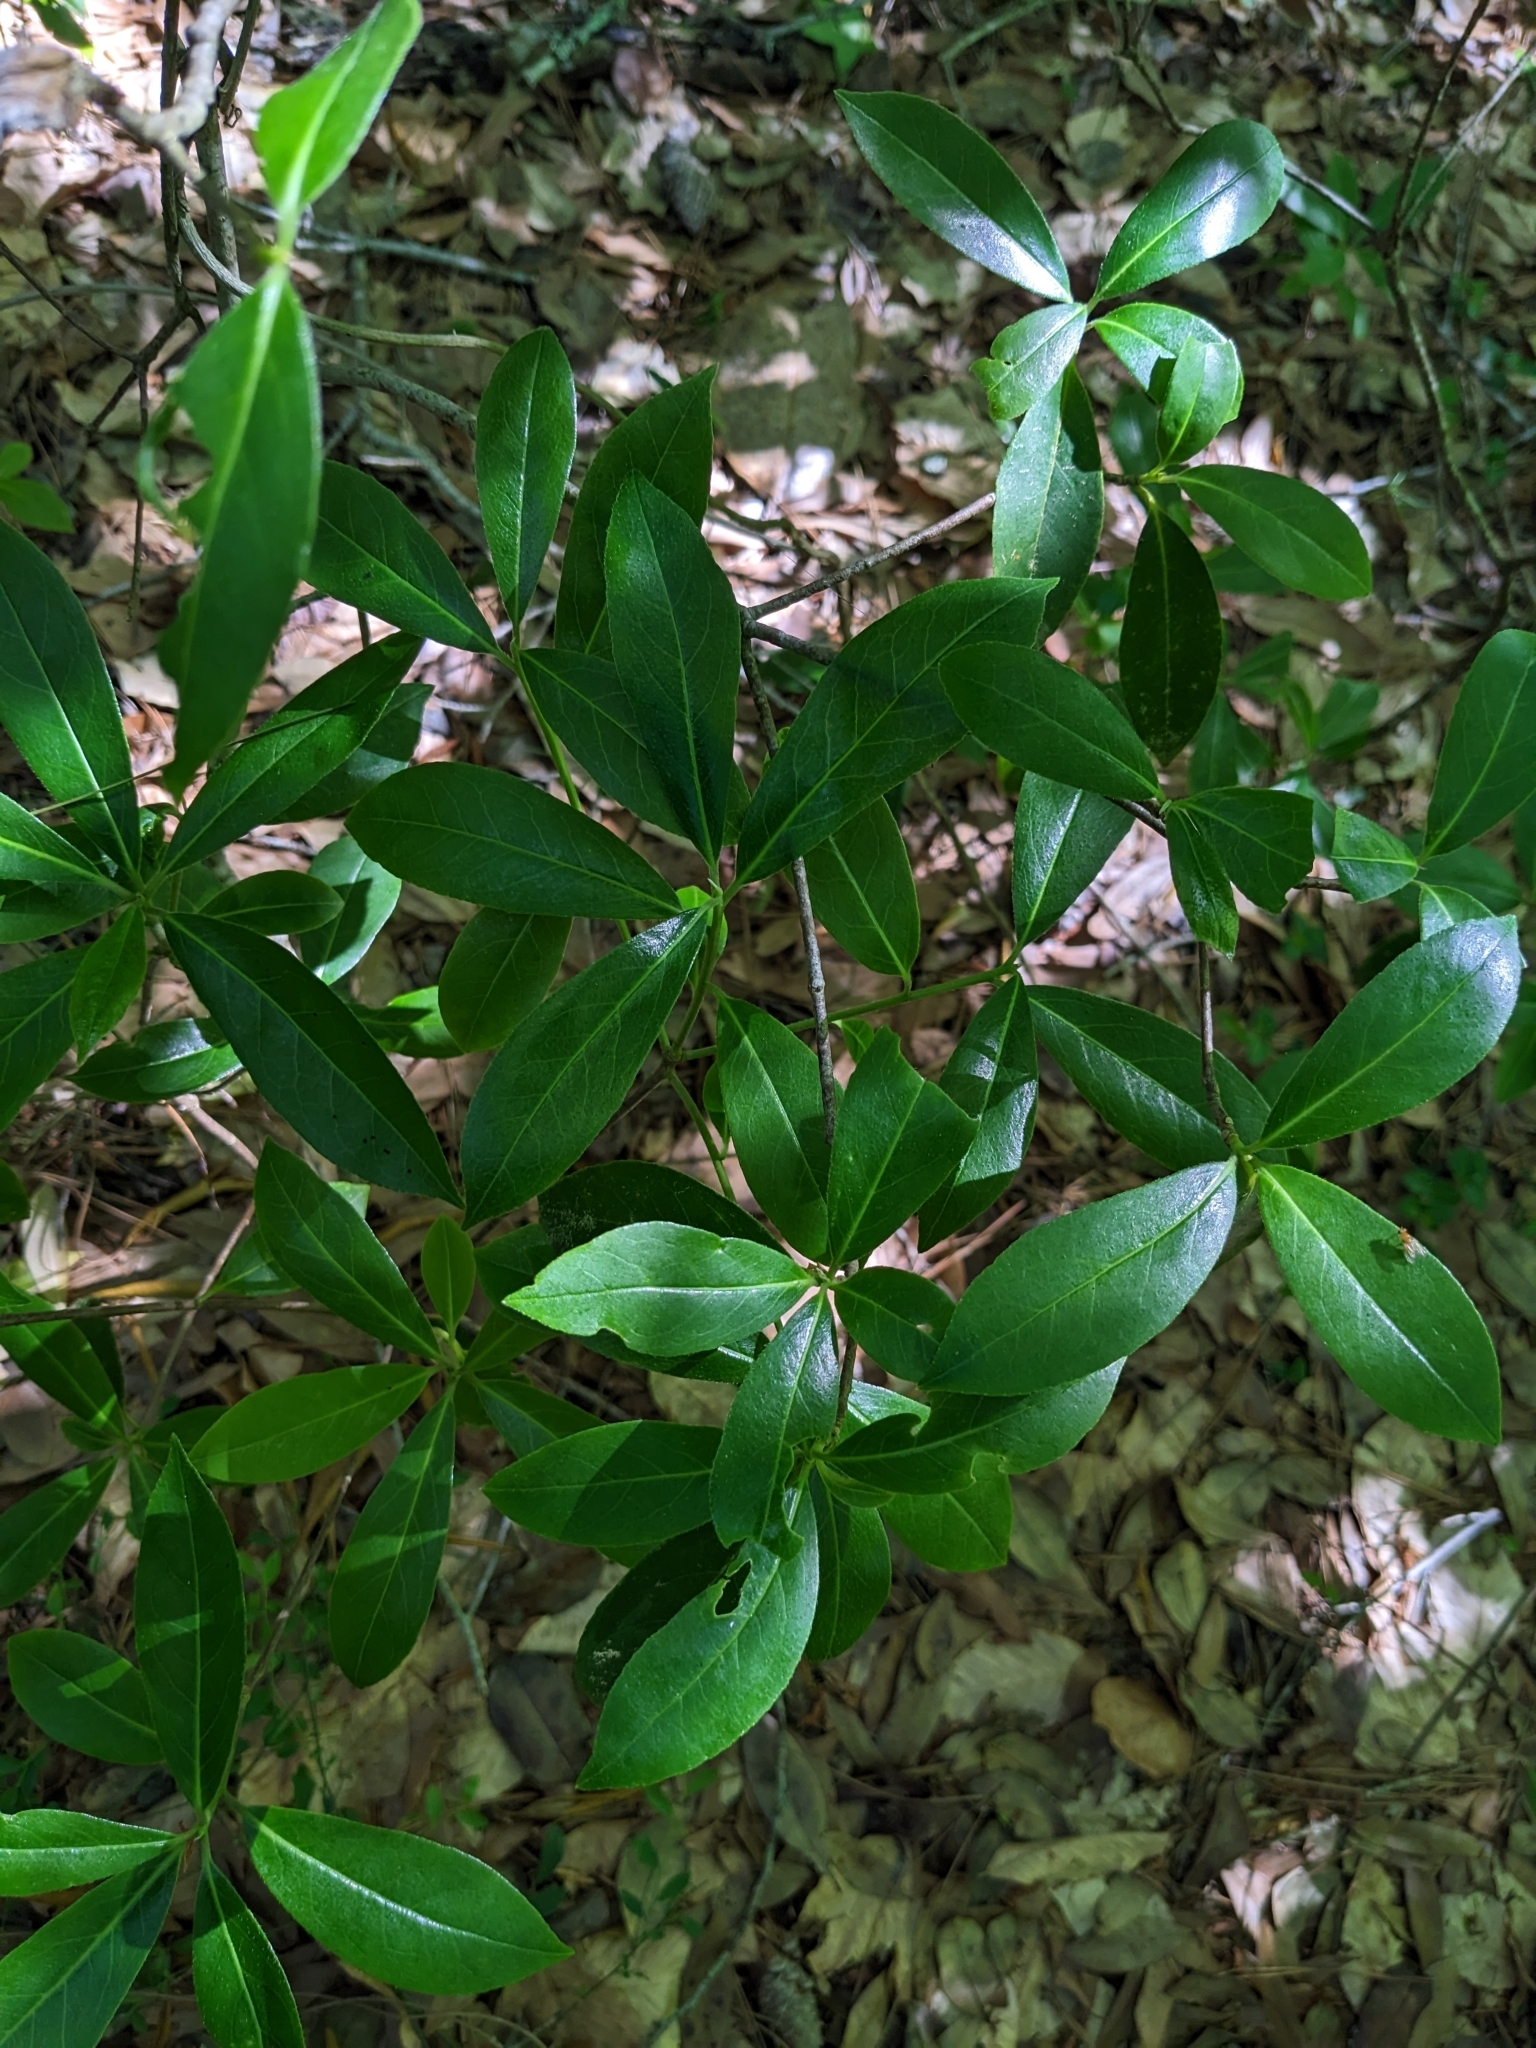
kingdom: Plantae
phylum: Tracheophyta
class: Magnoliopsida
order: Ericales
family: Symplocaceae
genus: Symplocos
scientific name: Symplocos tinctoria
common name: Horse-sugar
